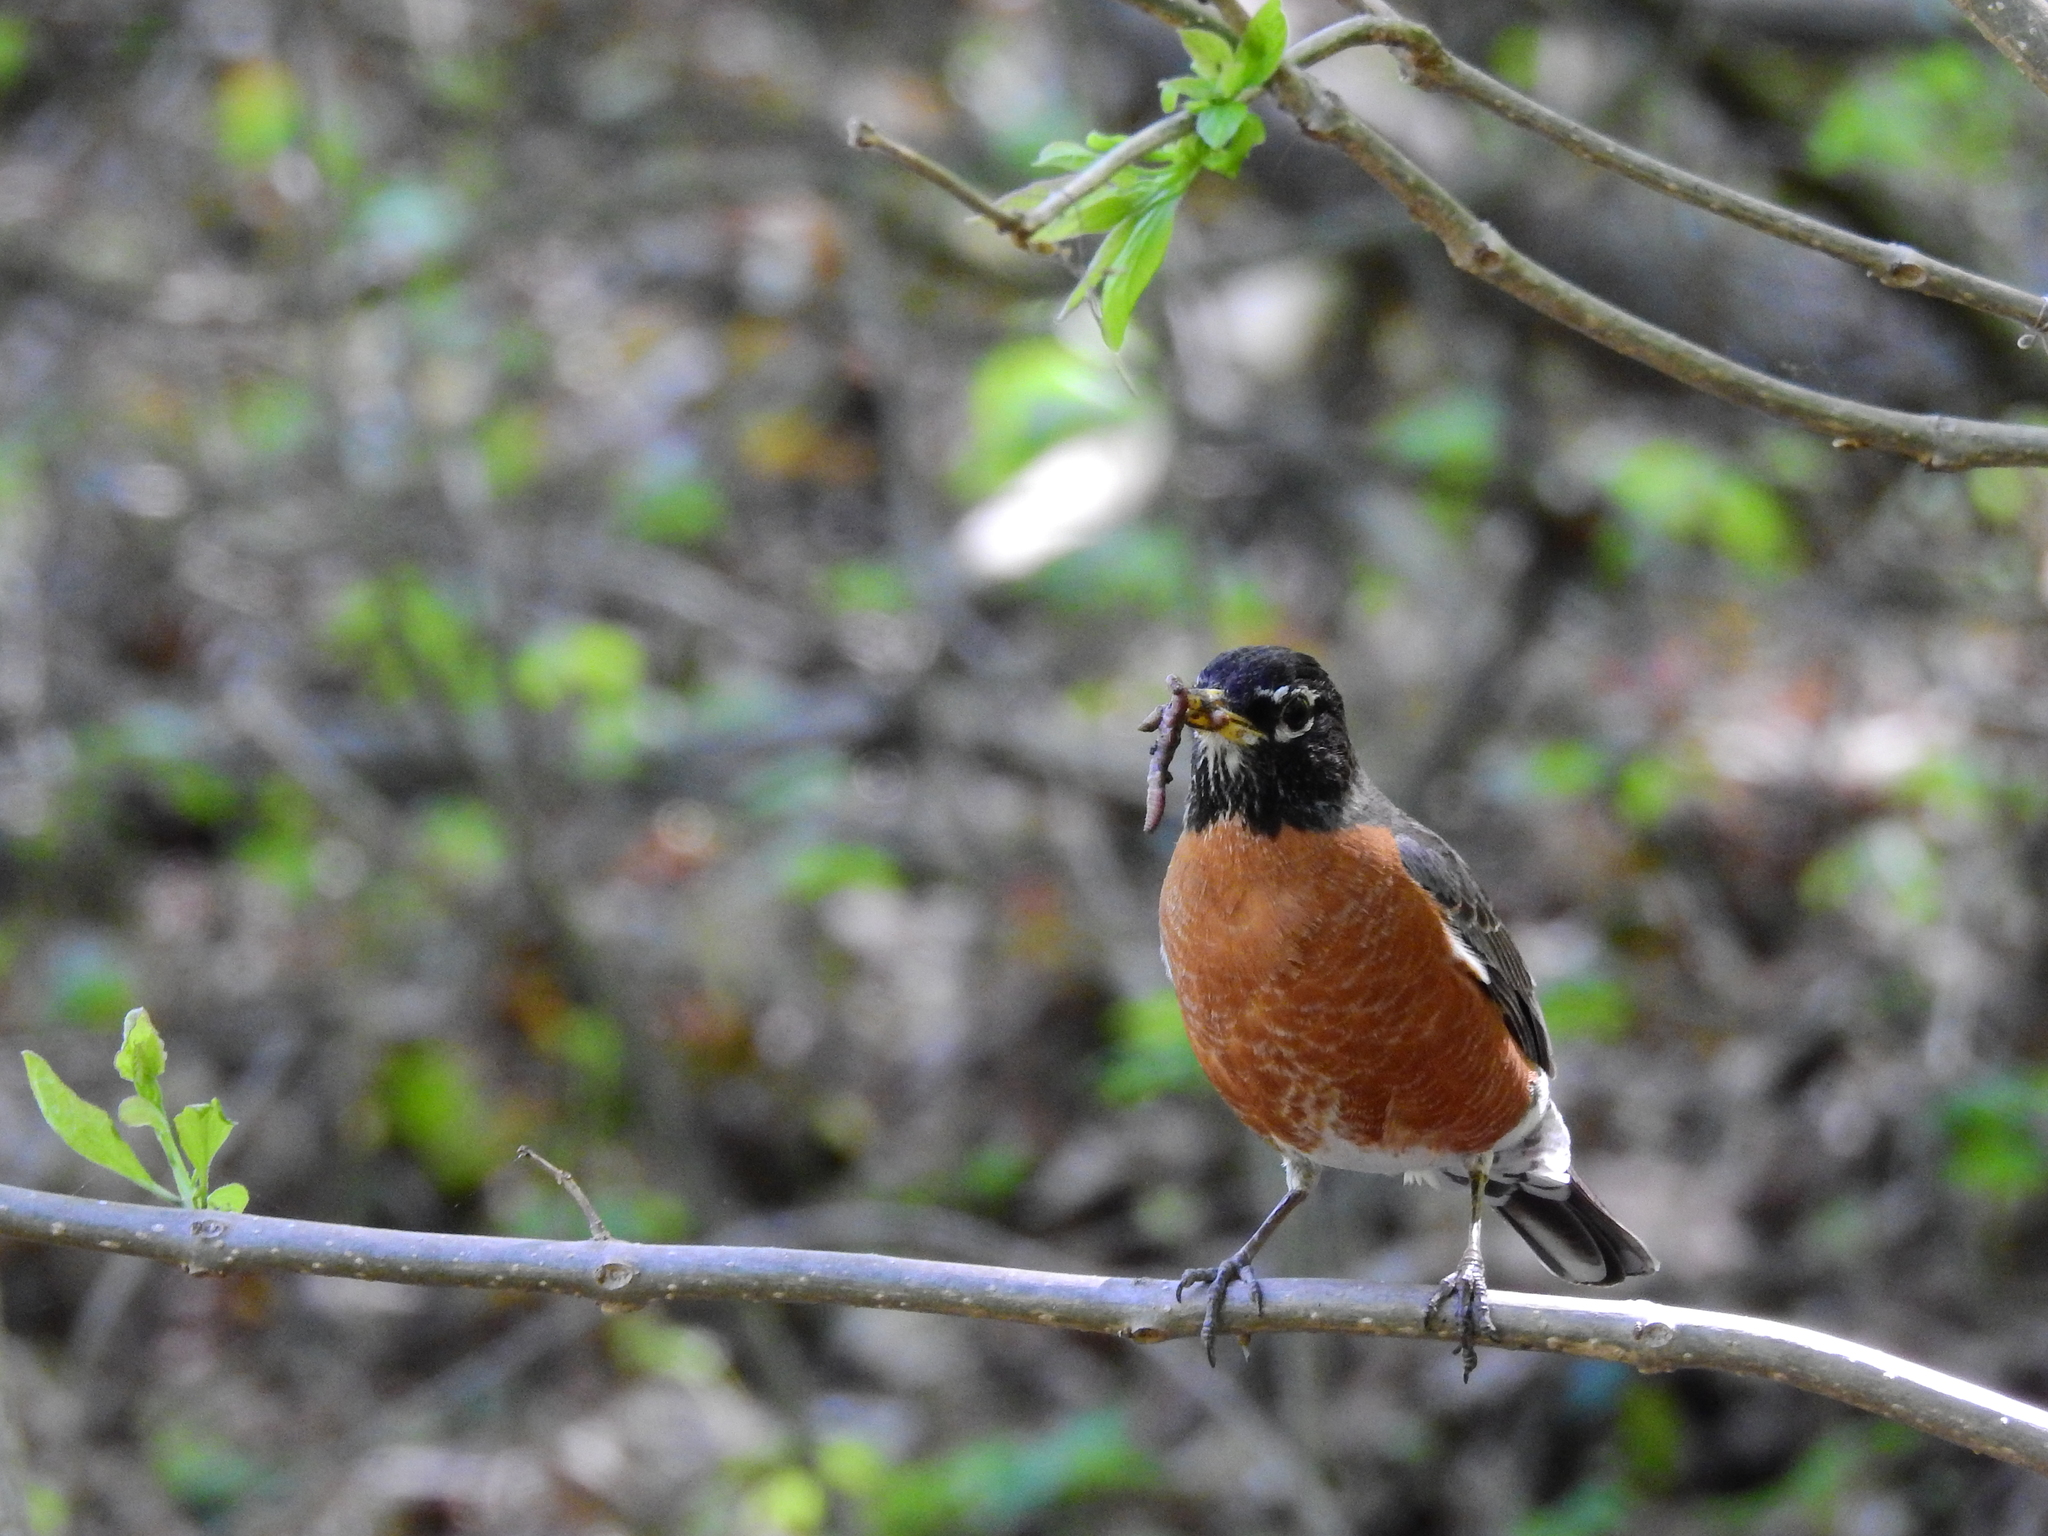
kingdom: Animalia
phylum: Chordata
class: Aves
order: Passeriformes
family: Turdidae
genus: Turdus
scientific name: Turdus migratorius
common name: American robin
